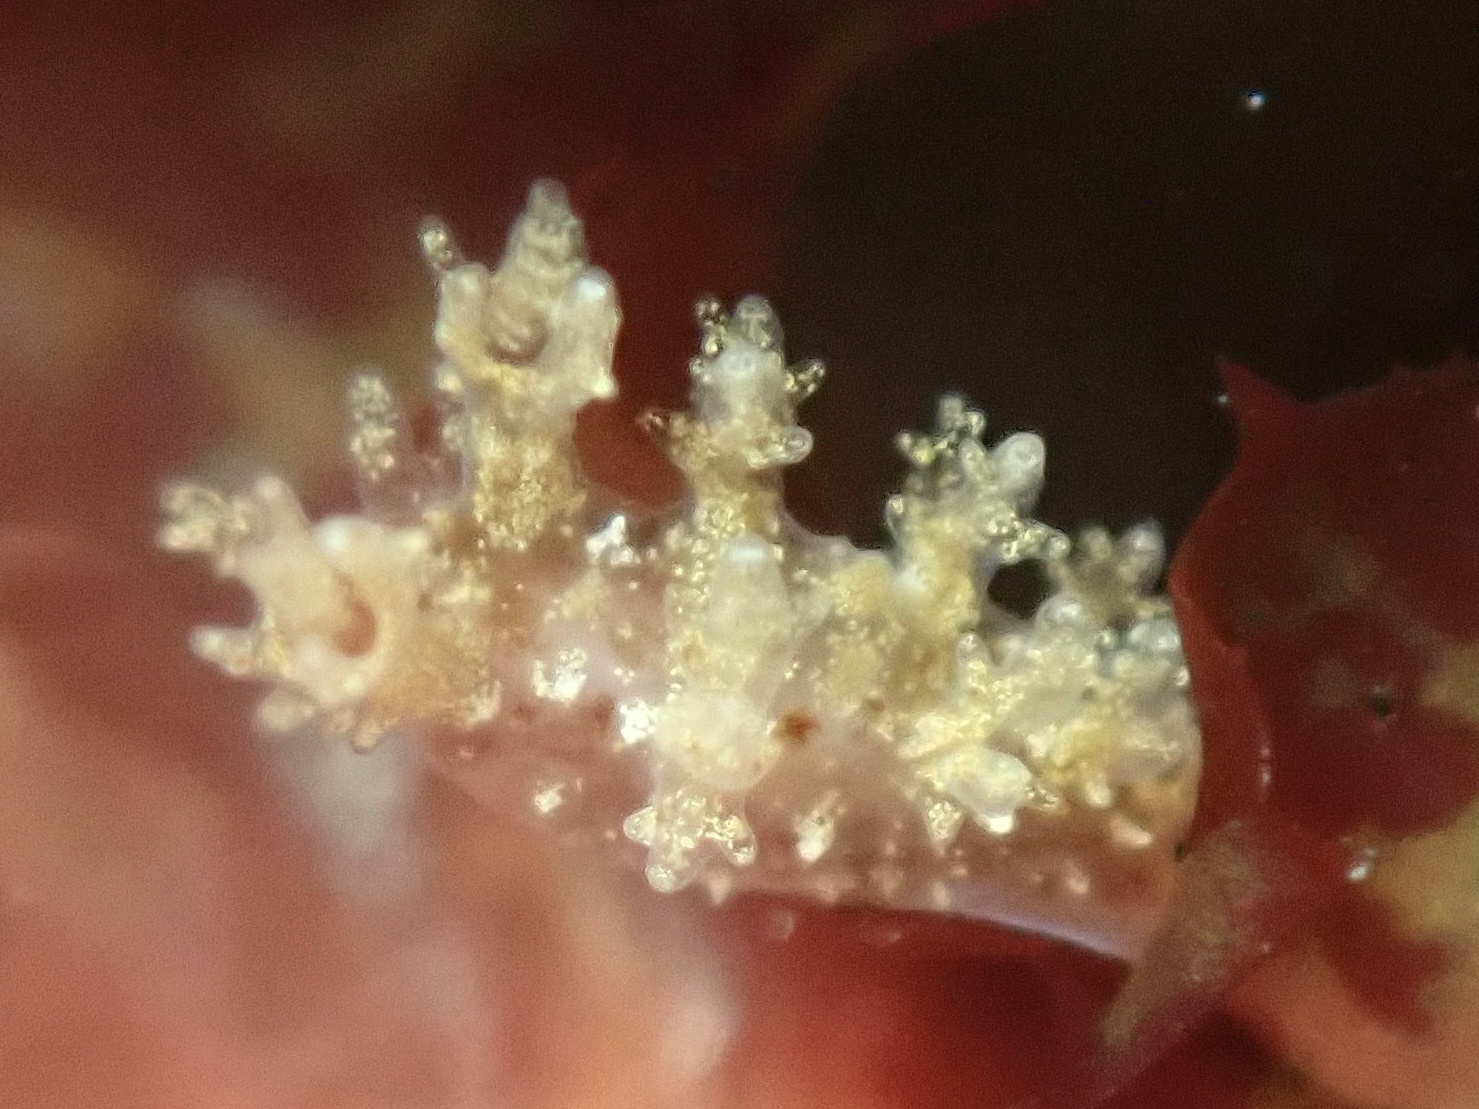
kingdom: Animalia
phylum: Mollusca
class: Gastropoda
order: Nudibranchia
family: Dendronotidae
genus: Dendronotus
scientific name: Dendronotus venustus
